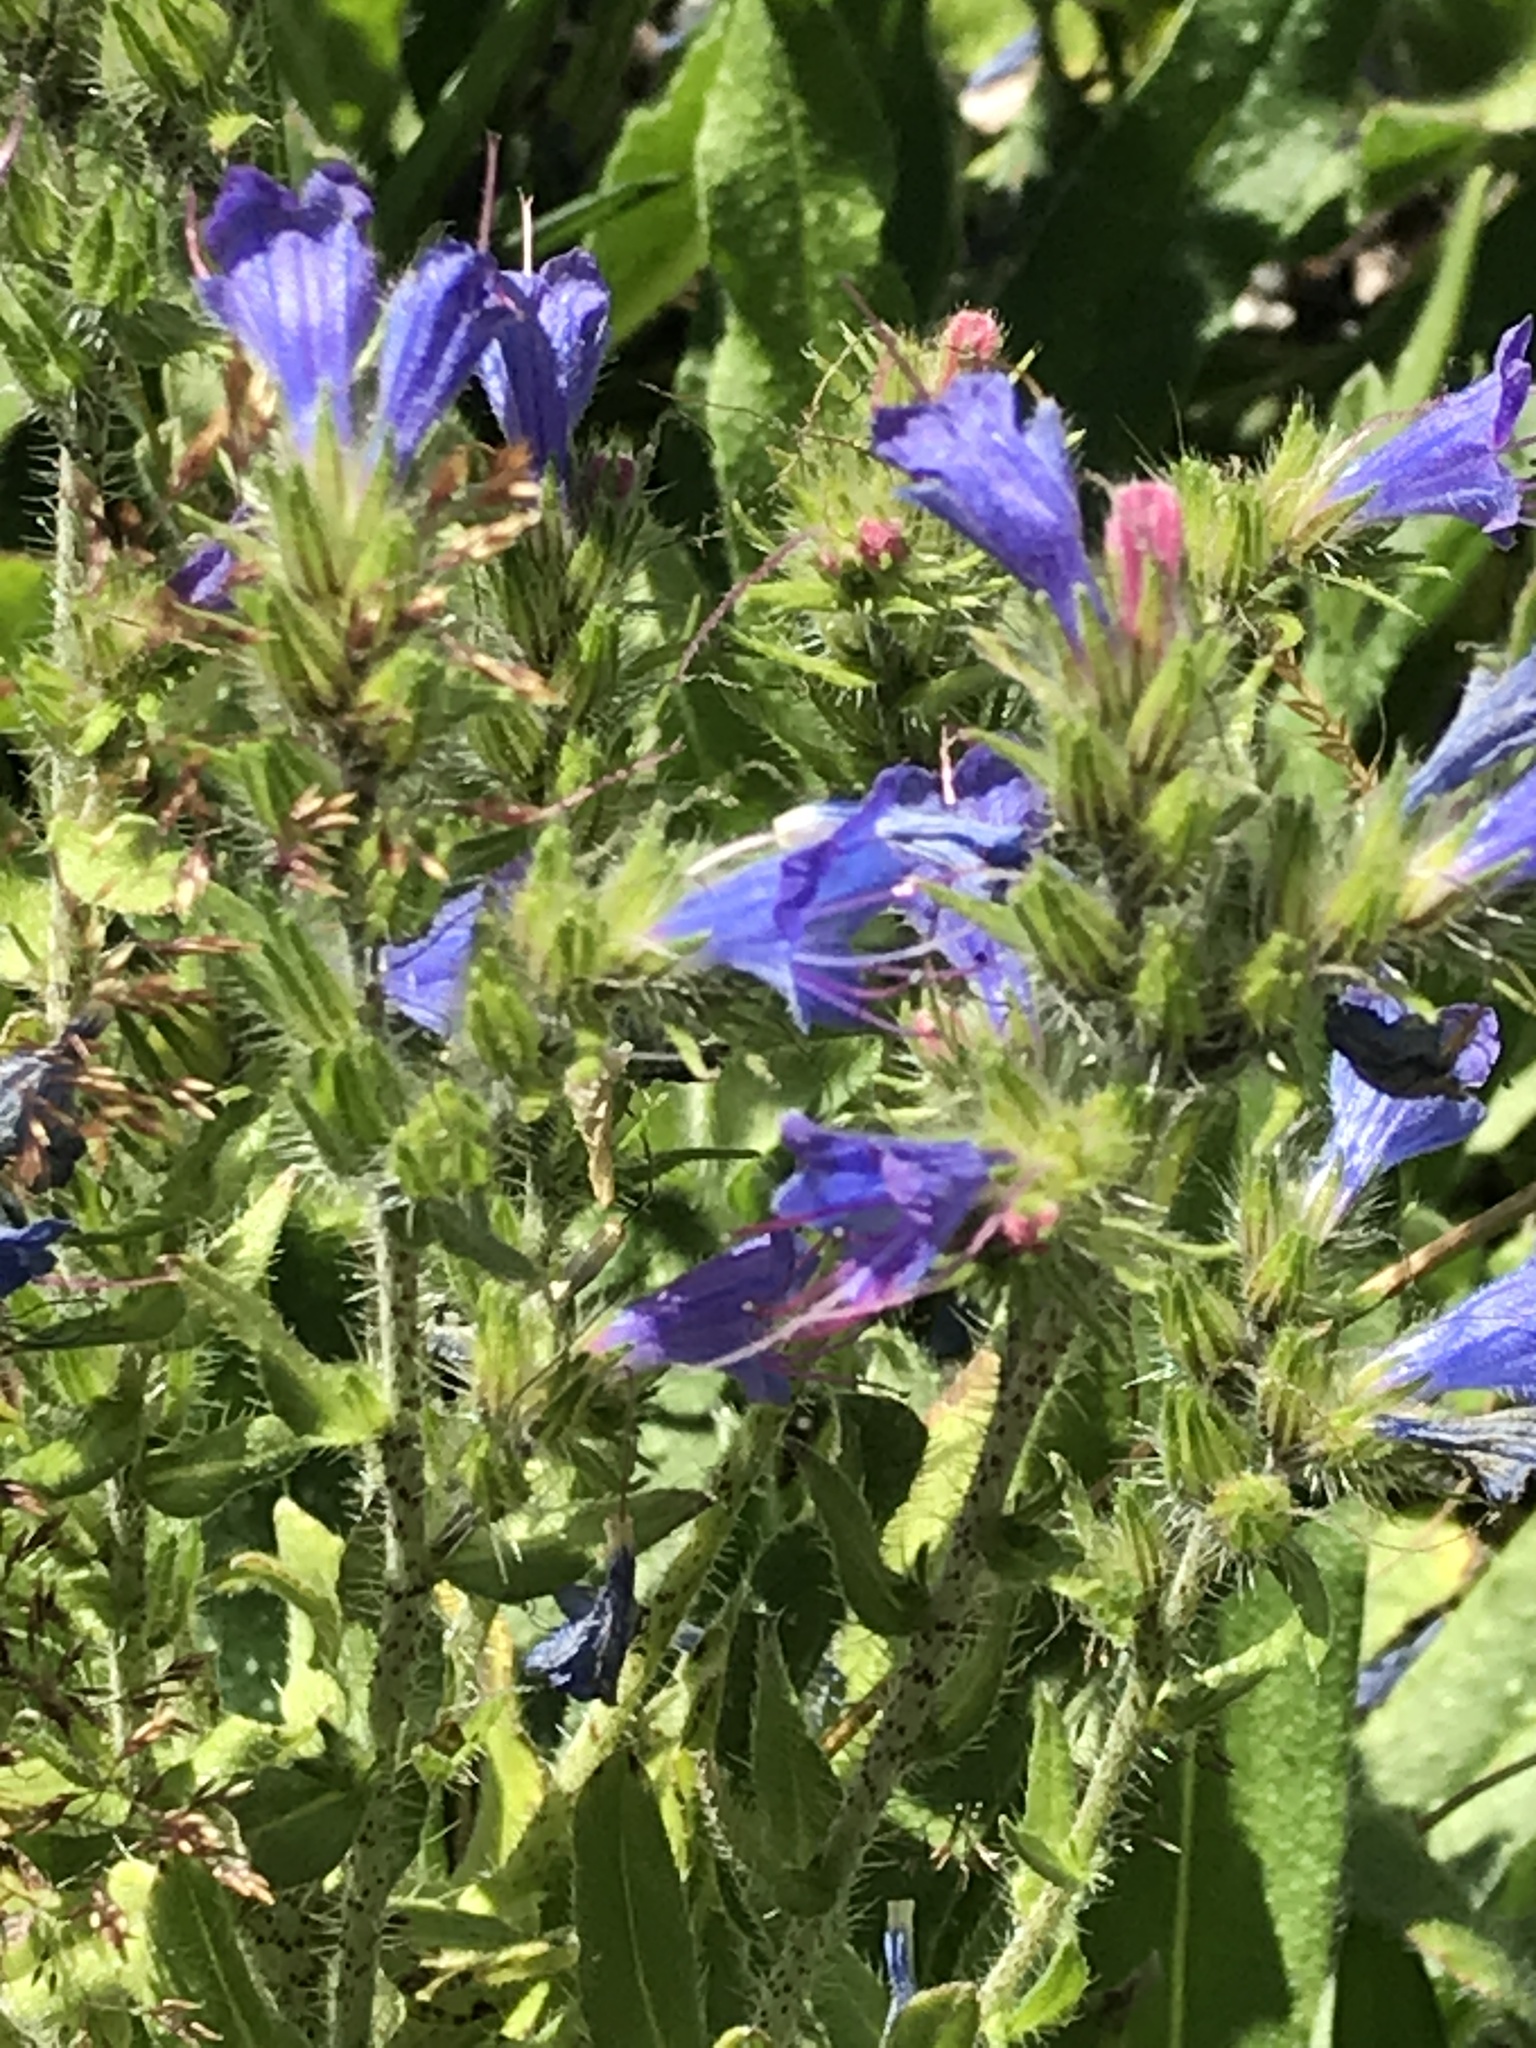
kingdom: Plantae
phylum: Tracheophyta
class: Magnoliopsida
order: Boraginales
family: Boraginaceae
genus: Echium
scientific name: Echium vulgare
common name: Common viper's bugloss
